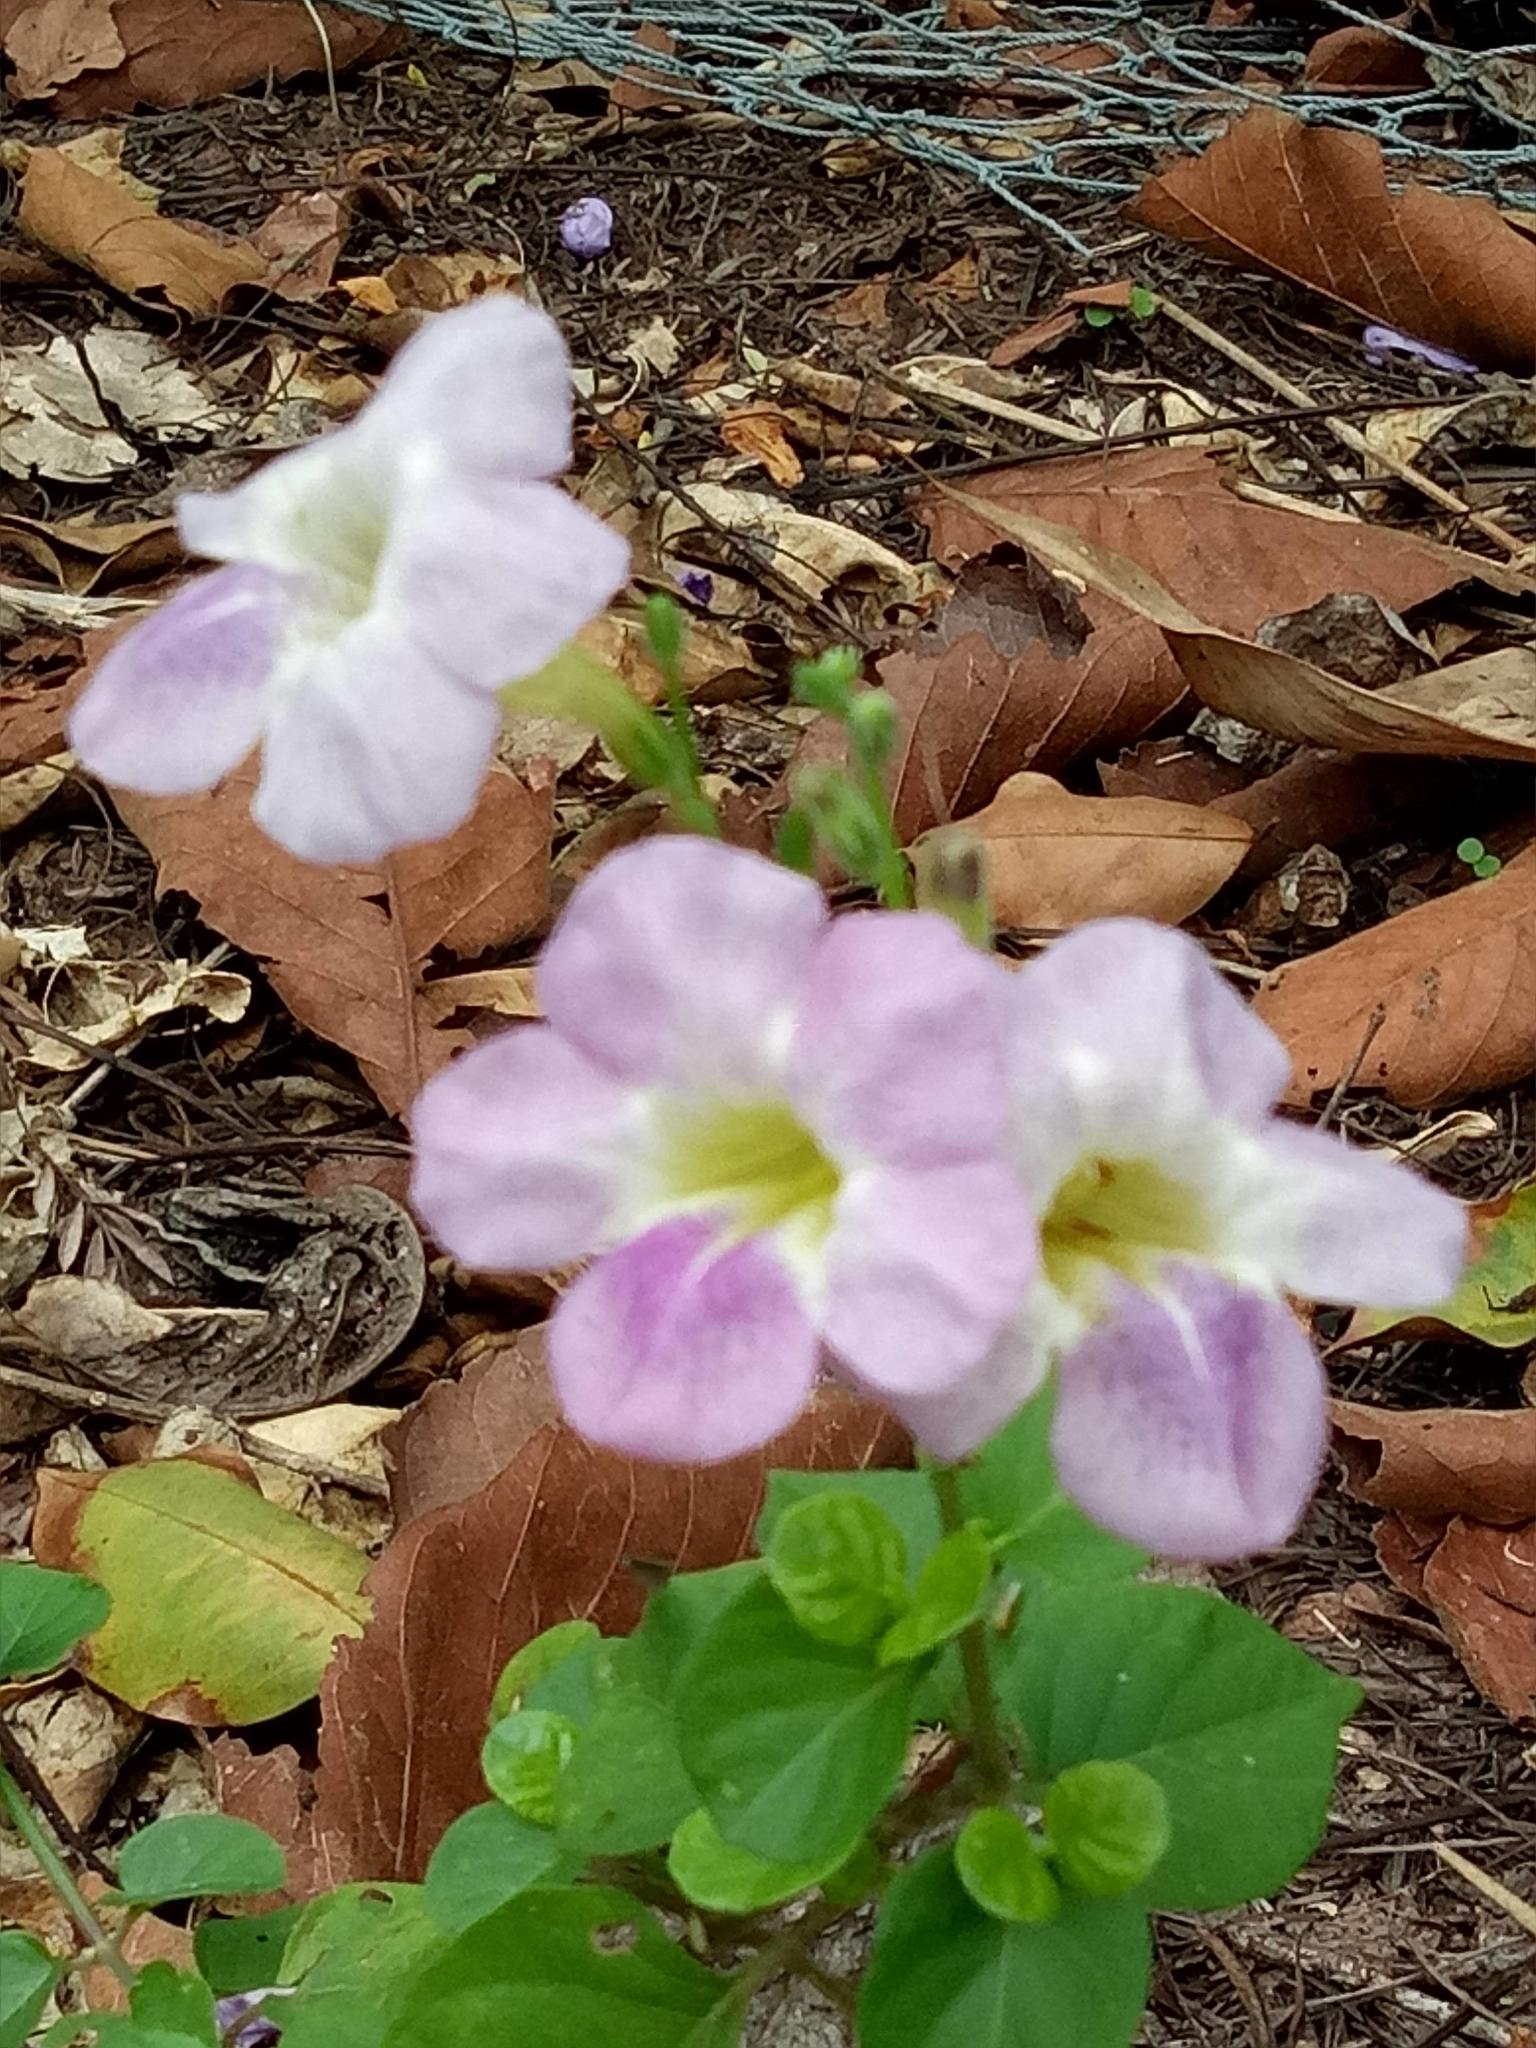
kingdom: Plantae
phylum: Tracheophyta
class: Magnoliopsida
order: Lamiales
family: Acanthaceae
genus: Asystasia
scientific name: Asystasia gangetica
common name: Chinese violet
